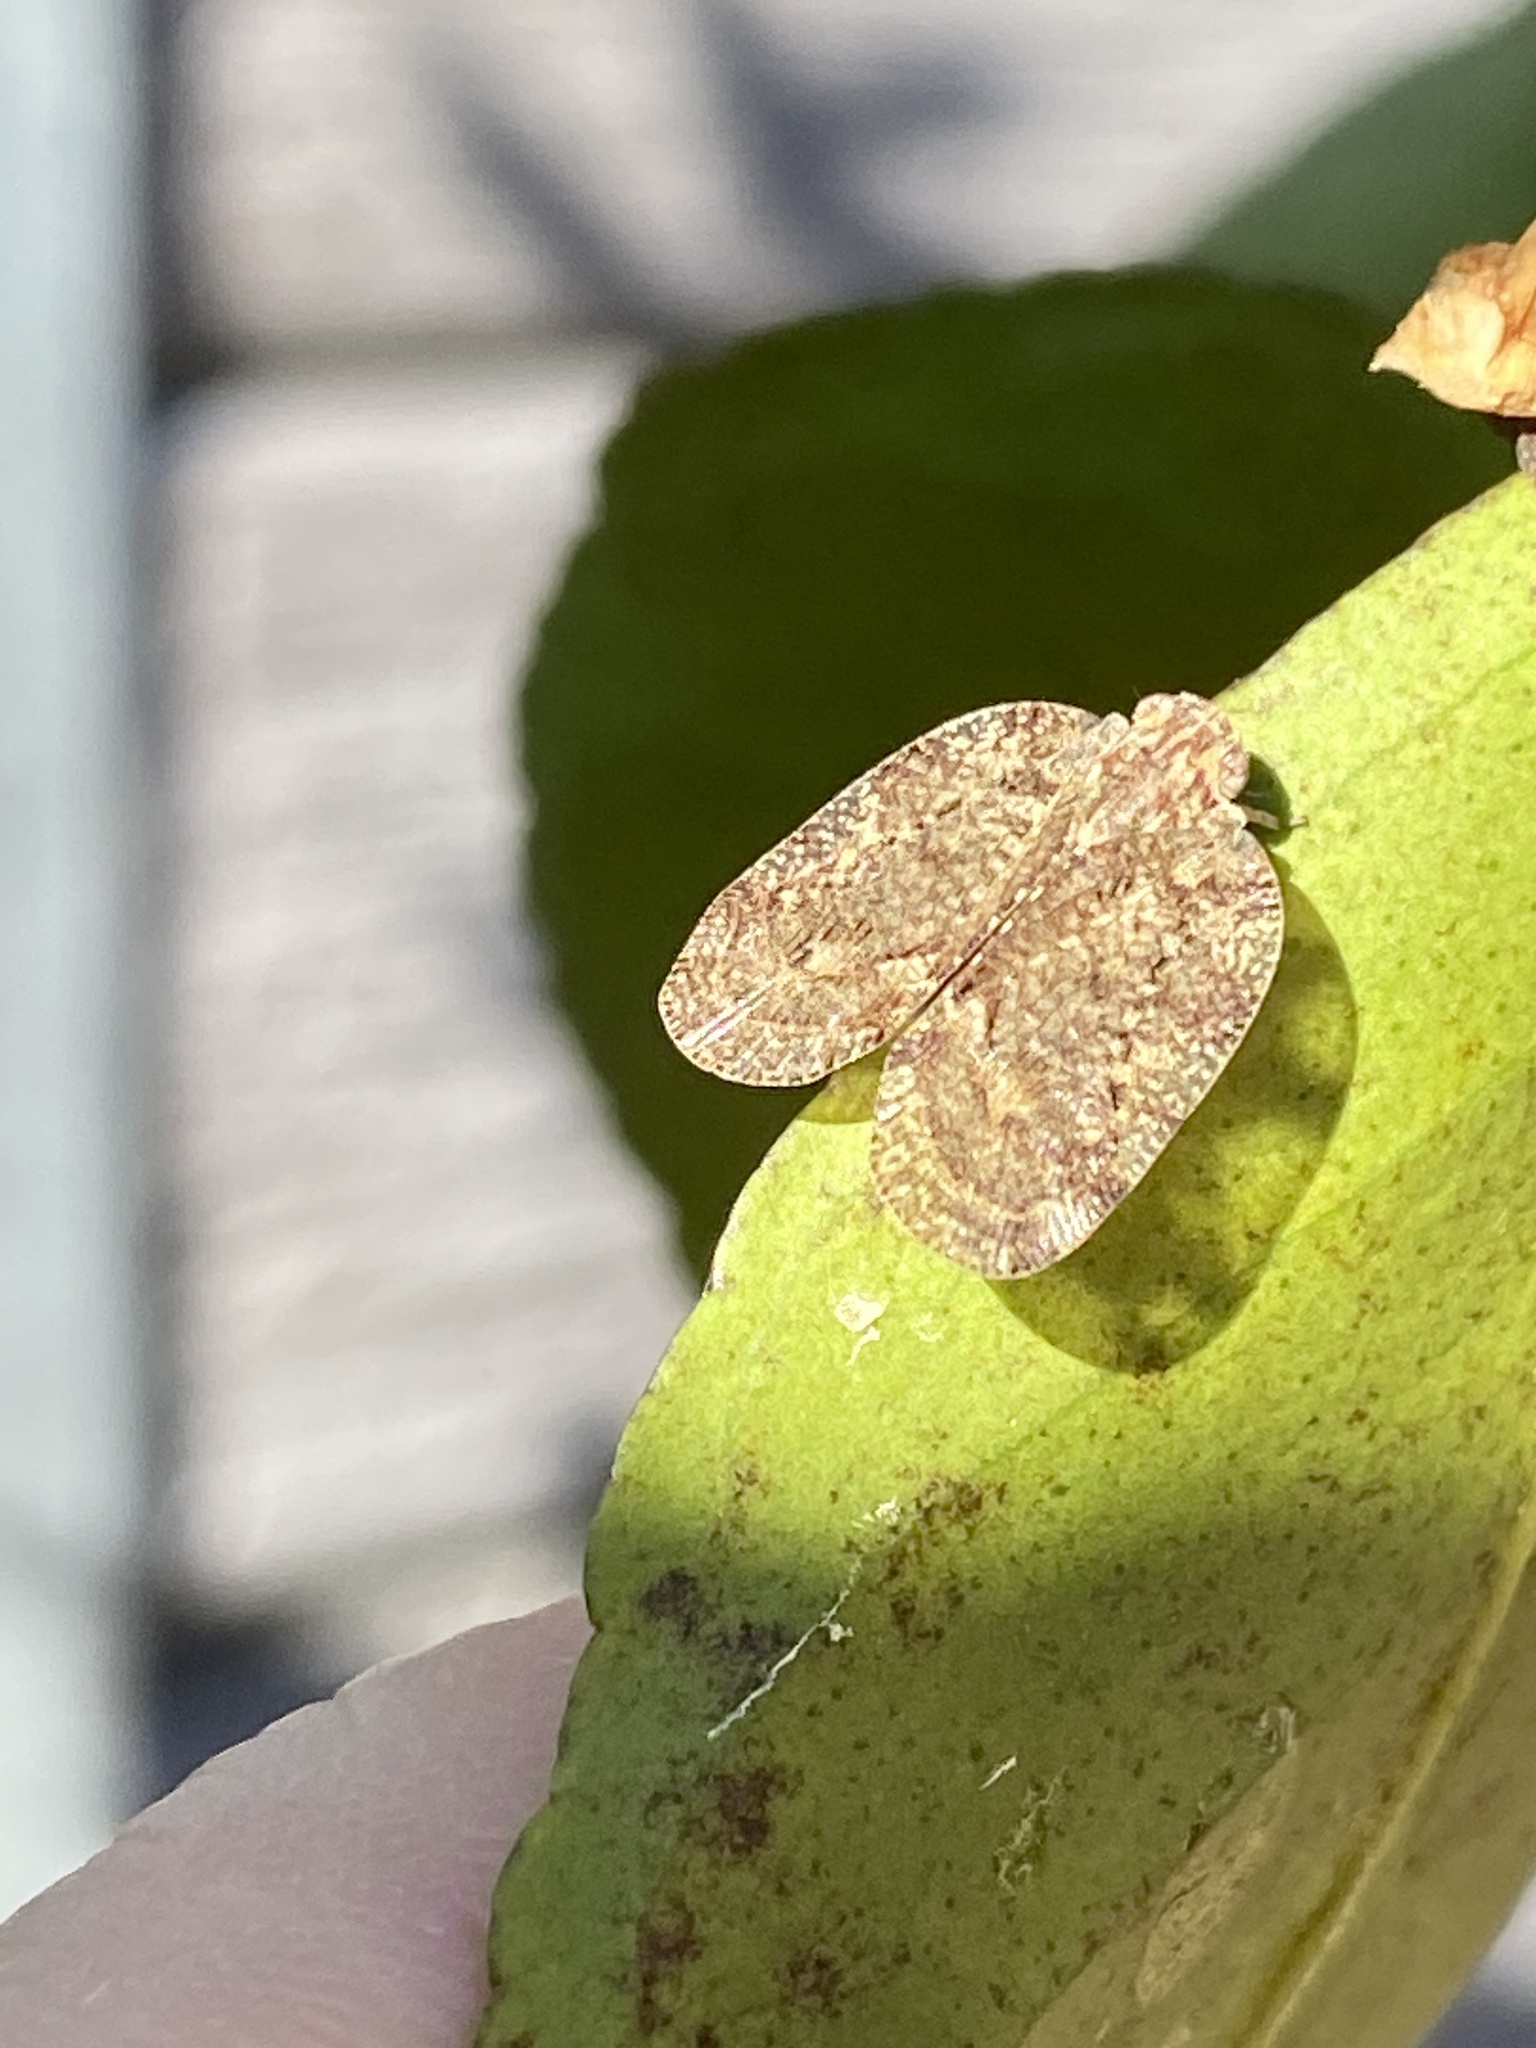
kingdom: Animalia
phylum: Arthropoda
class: Insecta
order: Hemiptera
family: Ricaniidae
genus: Aprivesa
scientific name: Aprivesa exuta
